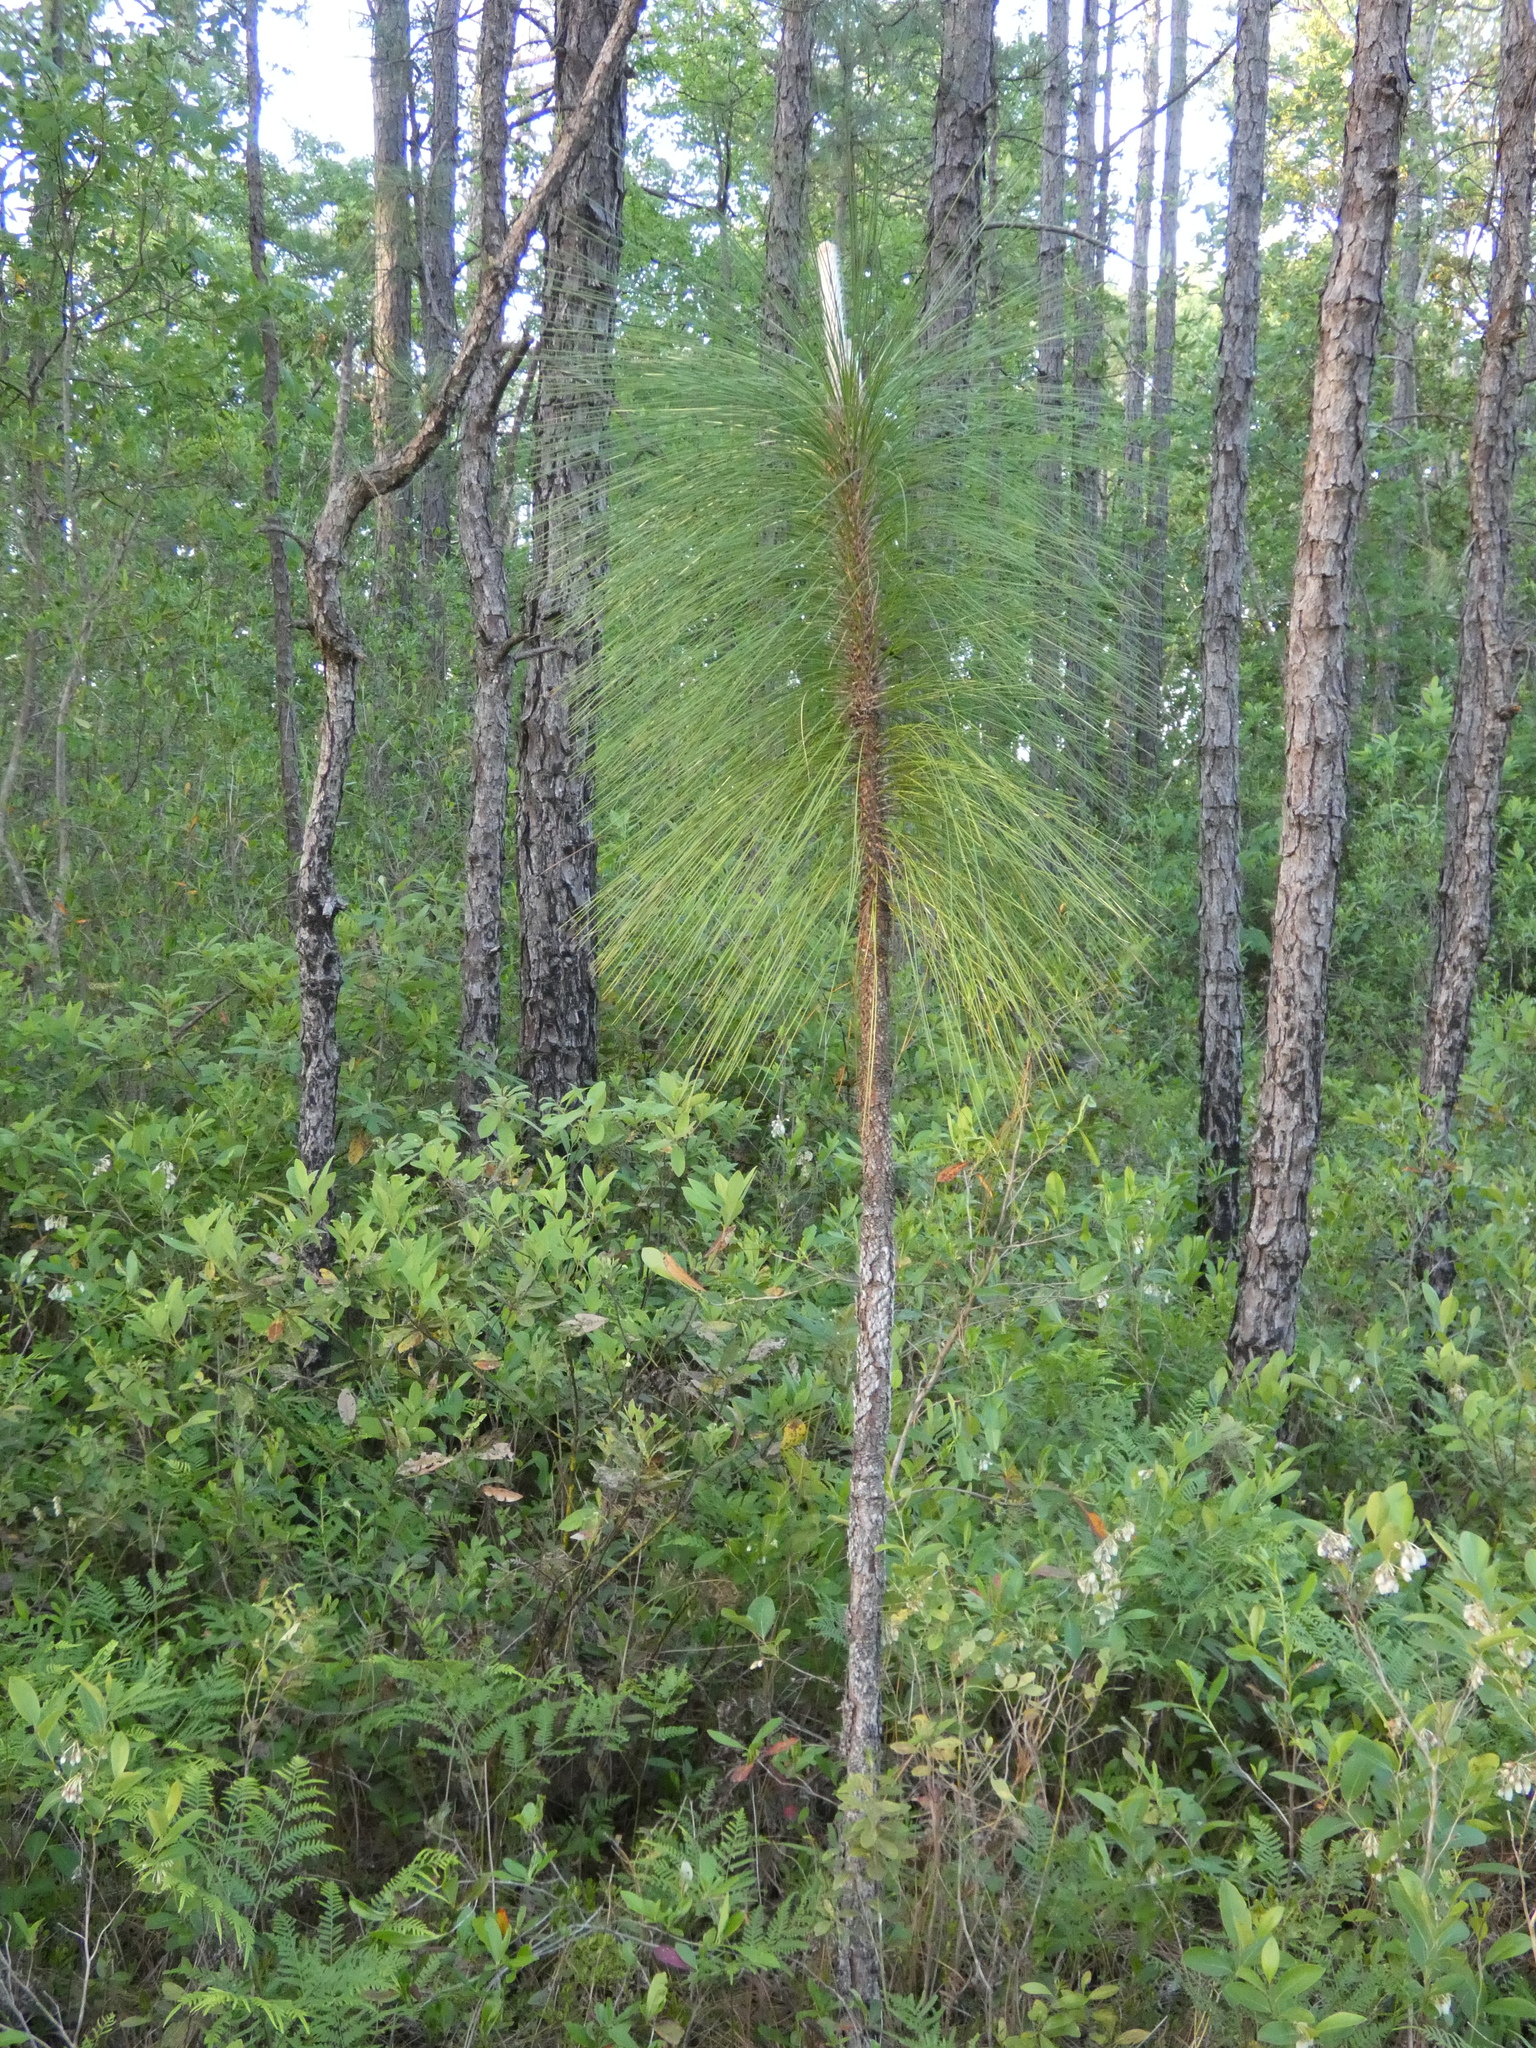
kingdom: Plantae
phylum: Tracheophyta
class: Pinopsida
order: Pinales
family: Pinaceae
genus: Pinus
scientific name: Pinus palustris
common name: Longleaf pine
